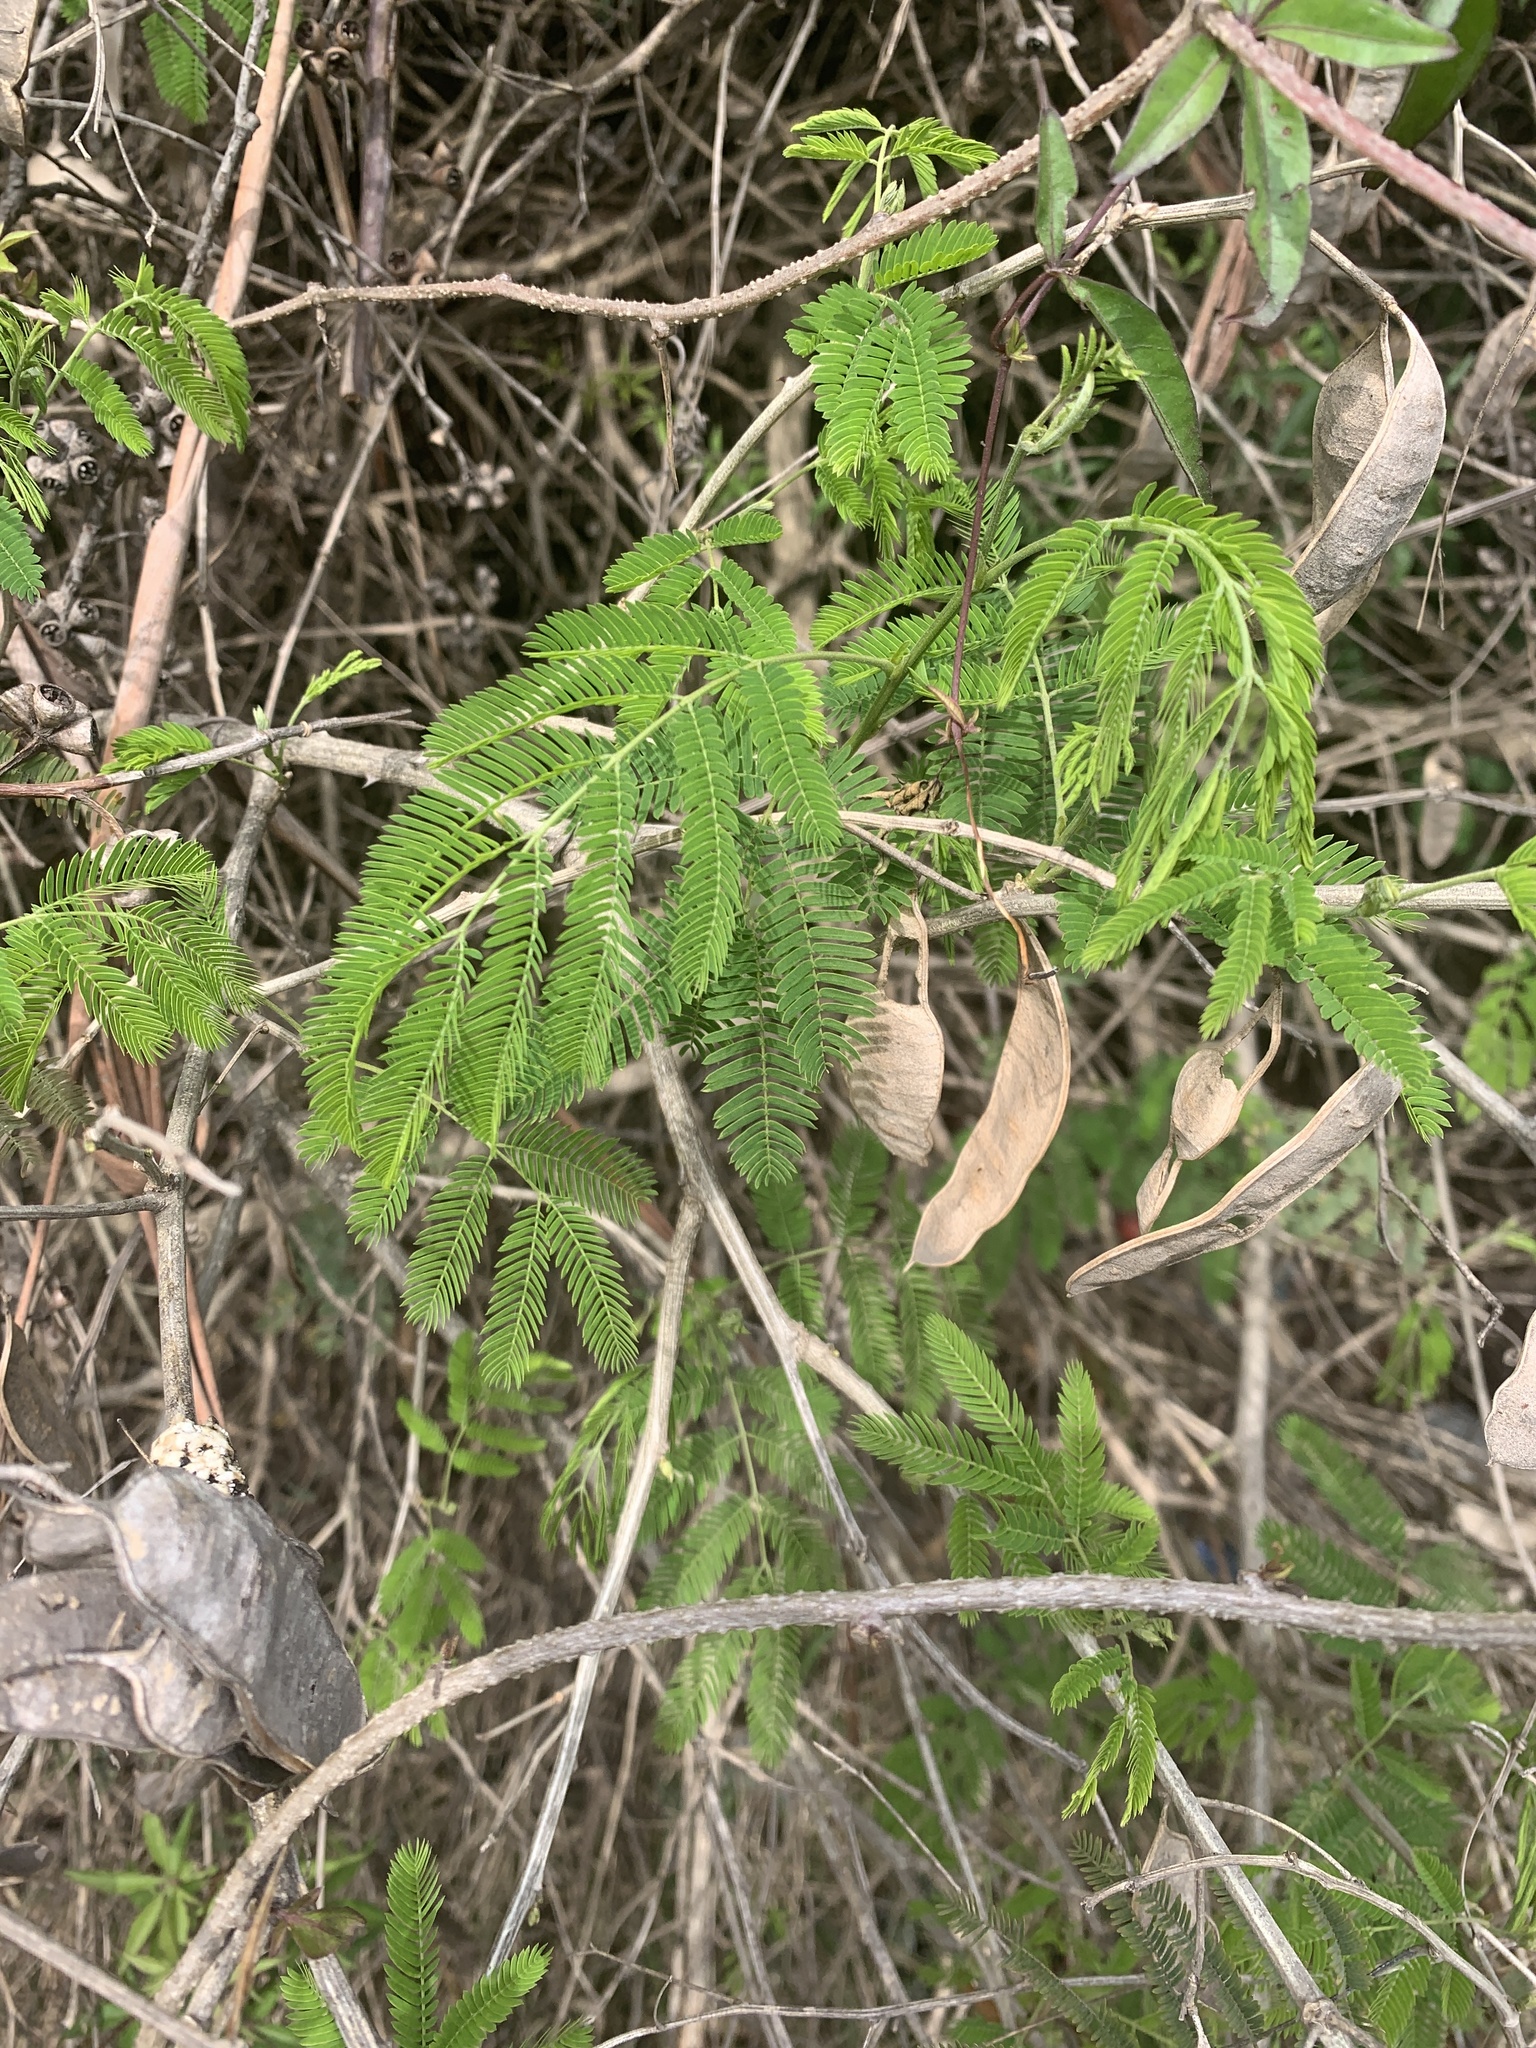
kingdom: Plantae
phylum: Tracheophyta
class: Magnoliopsida
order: Fabales
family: Fabaceae
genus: Senegalia
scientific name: Senegalia bonariensis
